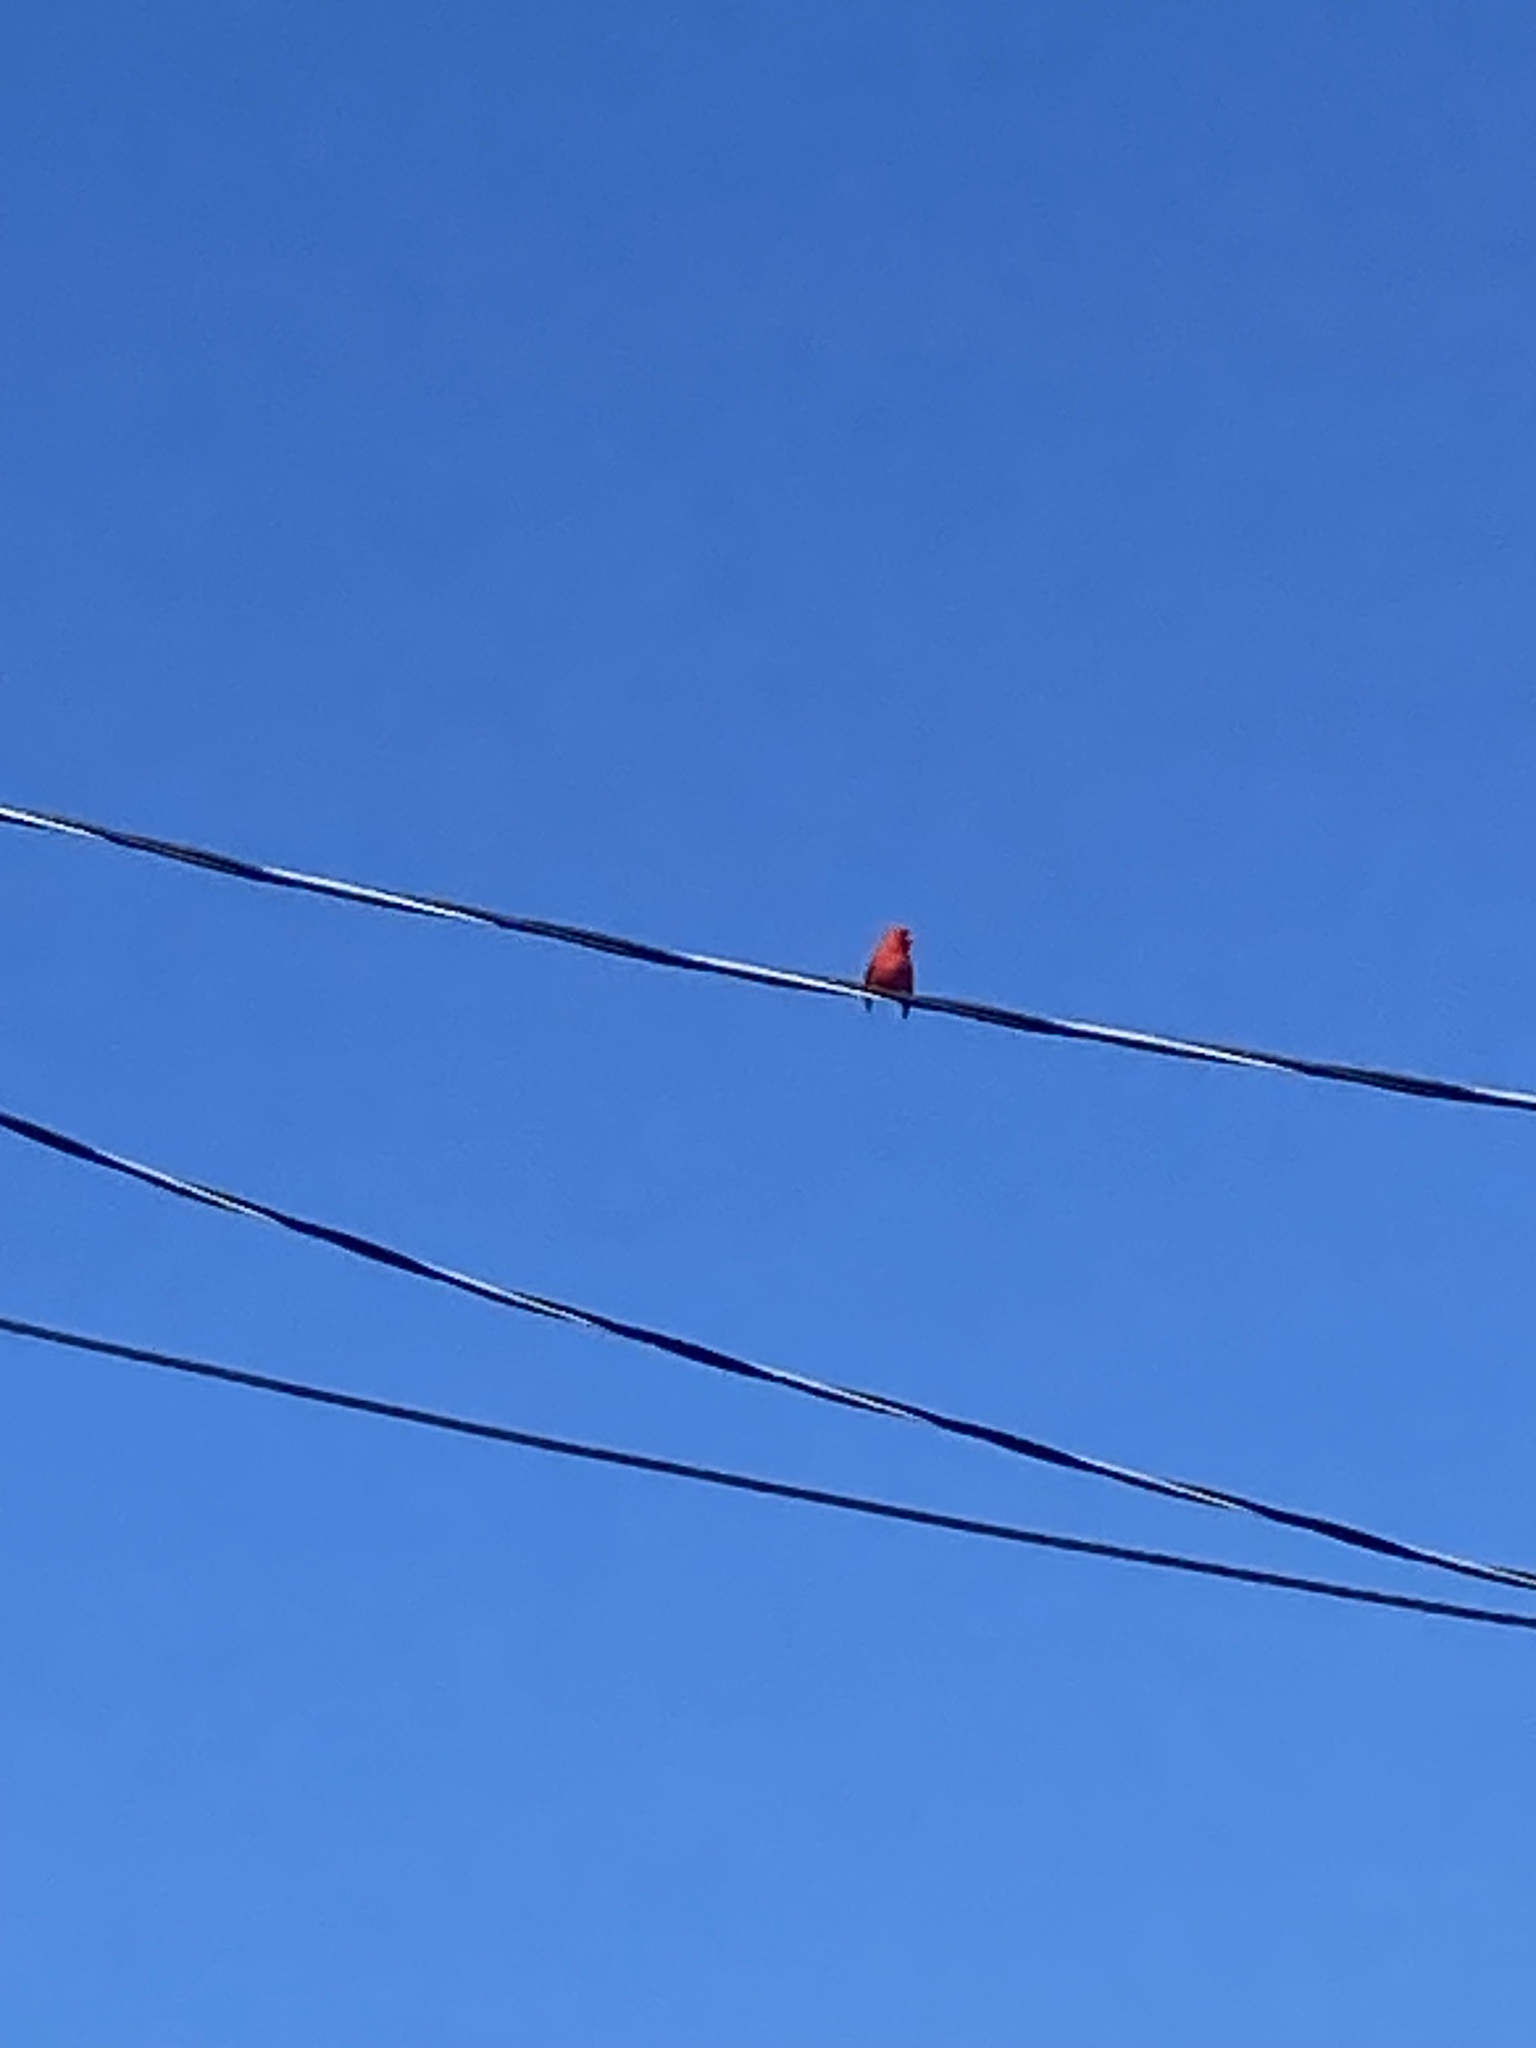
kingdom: Animalia
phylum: Chordata
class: Aves
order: Passeriformes
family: Cardinalidae
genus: Cardinalis
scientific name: Cardinalis cardinalis
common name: Northern cardinal
